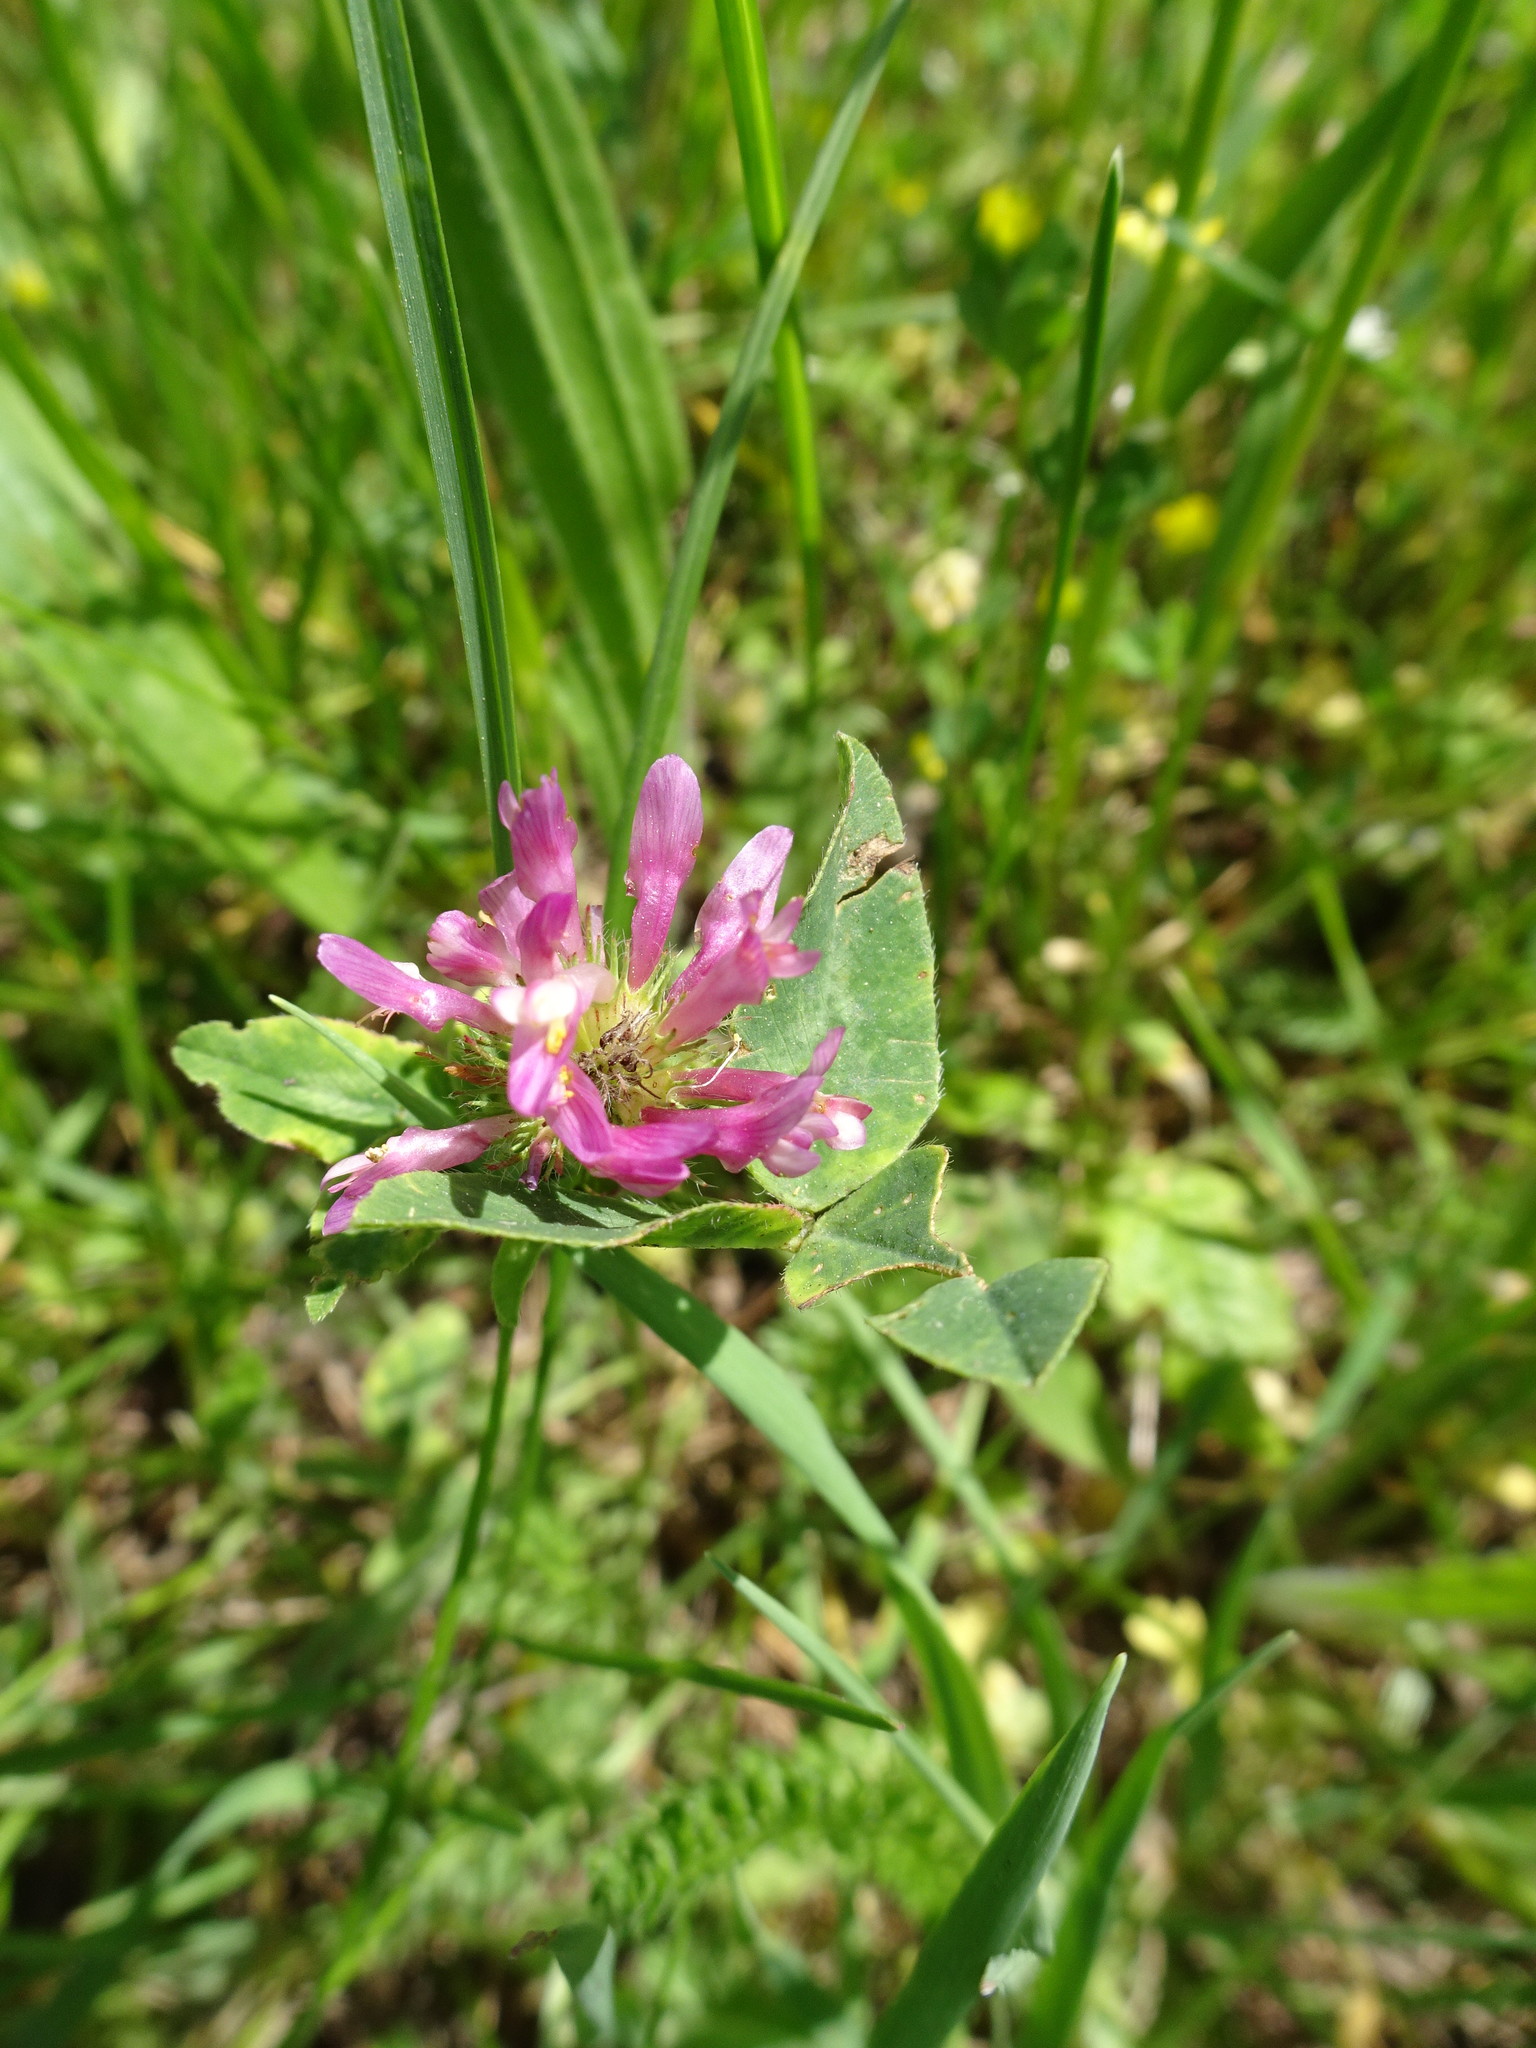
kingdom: Plantae
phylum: Tracheophyta
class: Magnoliopsida
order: Fabales
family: Fabaceae
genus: Trifolium
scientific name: Trifolium pratense
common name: Red clover
